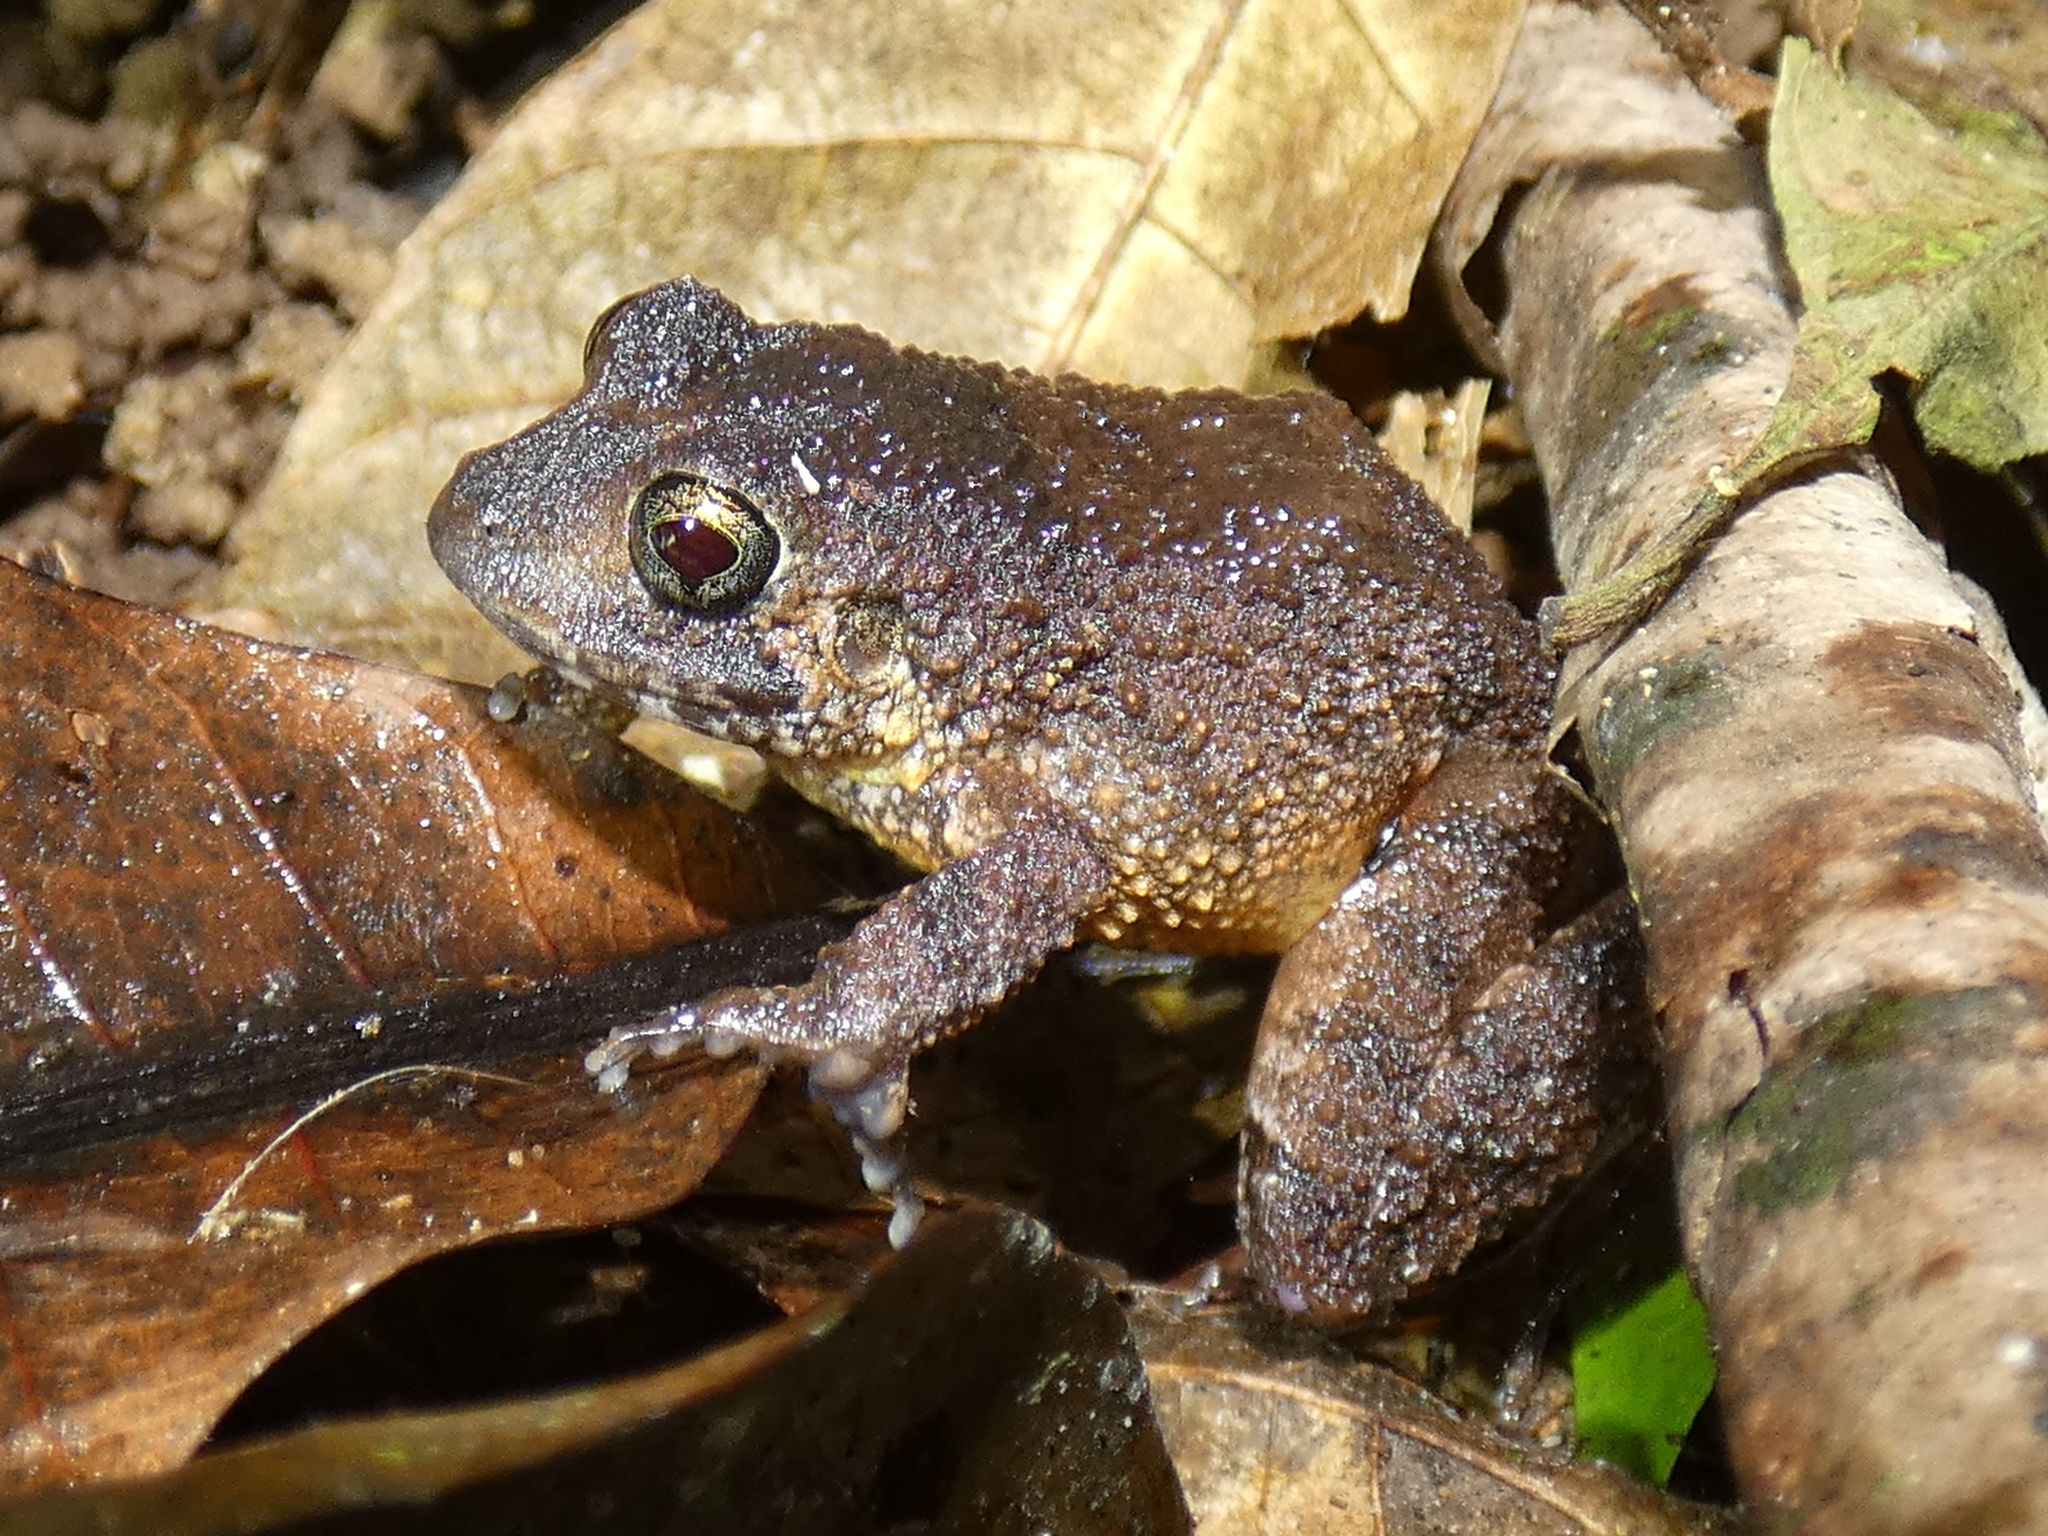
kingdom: Animalia
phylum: Chordata
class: Amphibia
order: Anura
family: Craugastoridae
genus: Strabomantis
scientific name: Strabomantis bufoniformis
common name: Rusty robber frog
